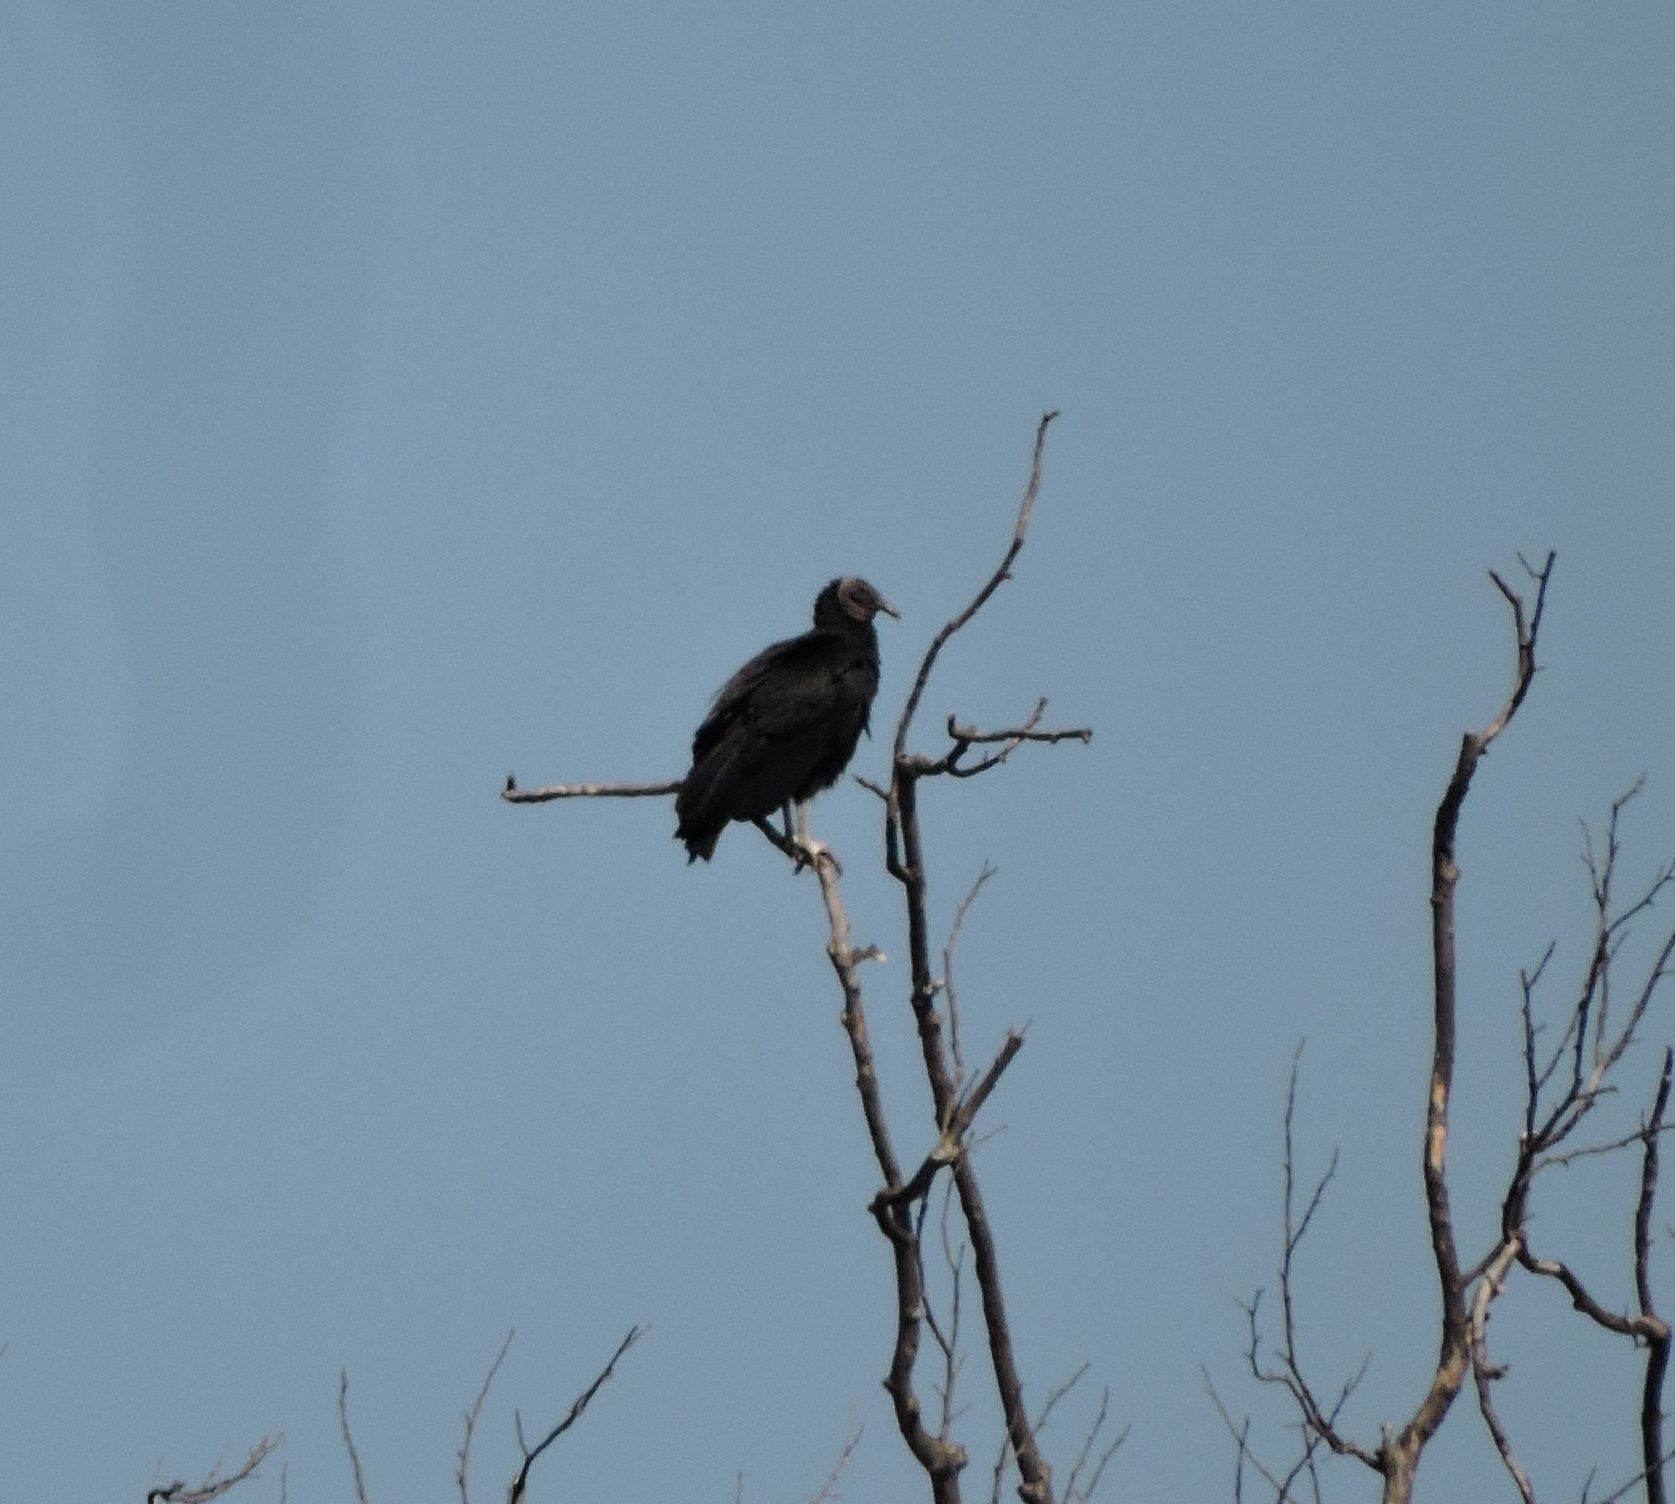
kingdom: Animalia
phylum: Chordata
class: Aves
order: Accipitriformes
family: Cathartidae
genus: Coragyps
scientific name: Coragyps atratus
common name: Black vulture
